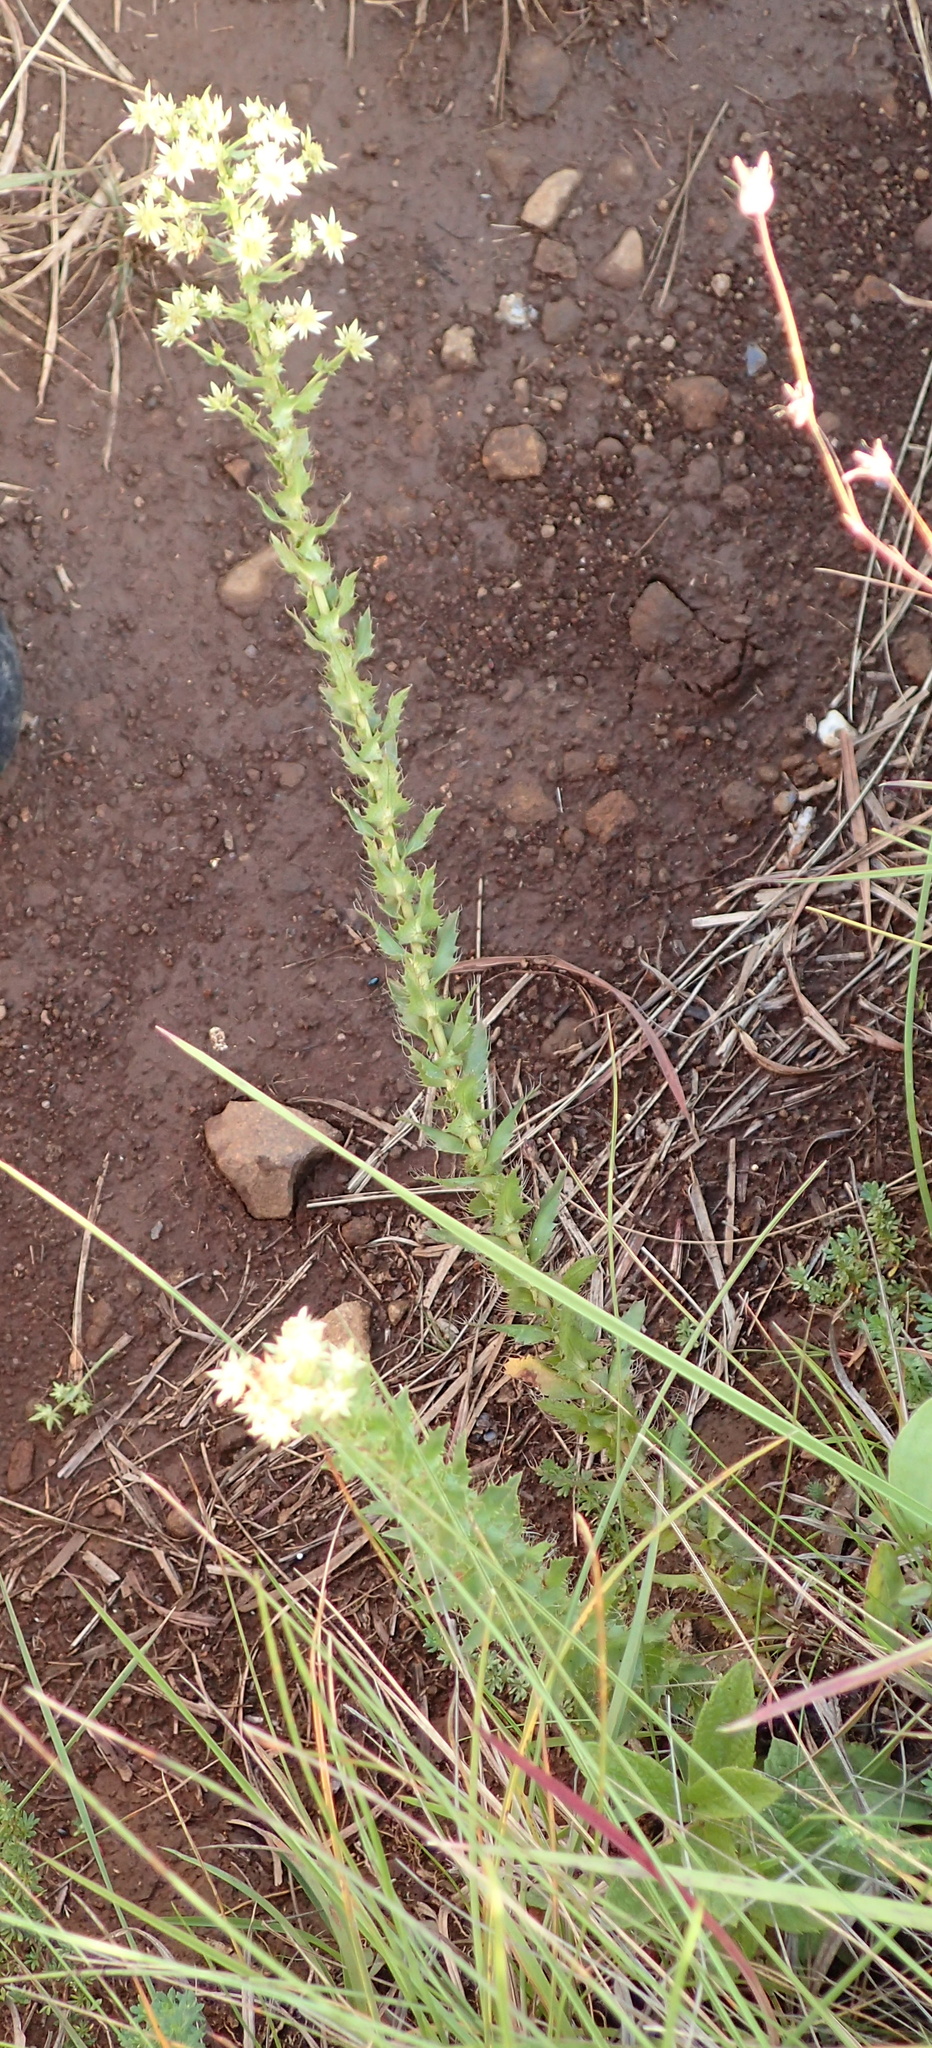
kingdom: Plantae
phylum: Tracheophyta
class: Magnoliopsida
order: Apiales
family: Apiaceae
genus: Alepidea
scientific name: Alepidea setifera
